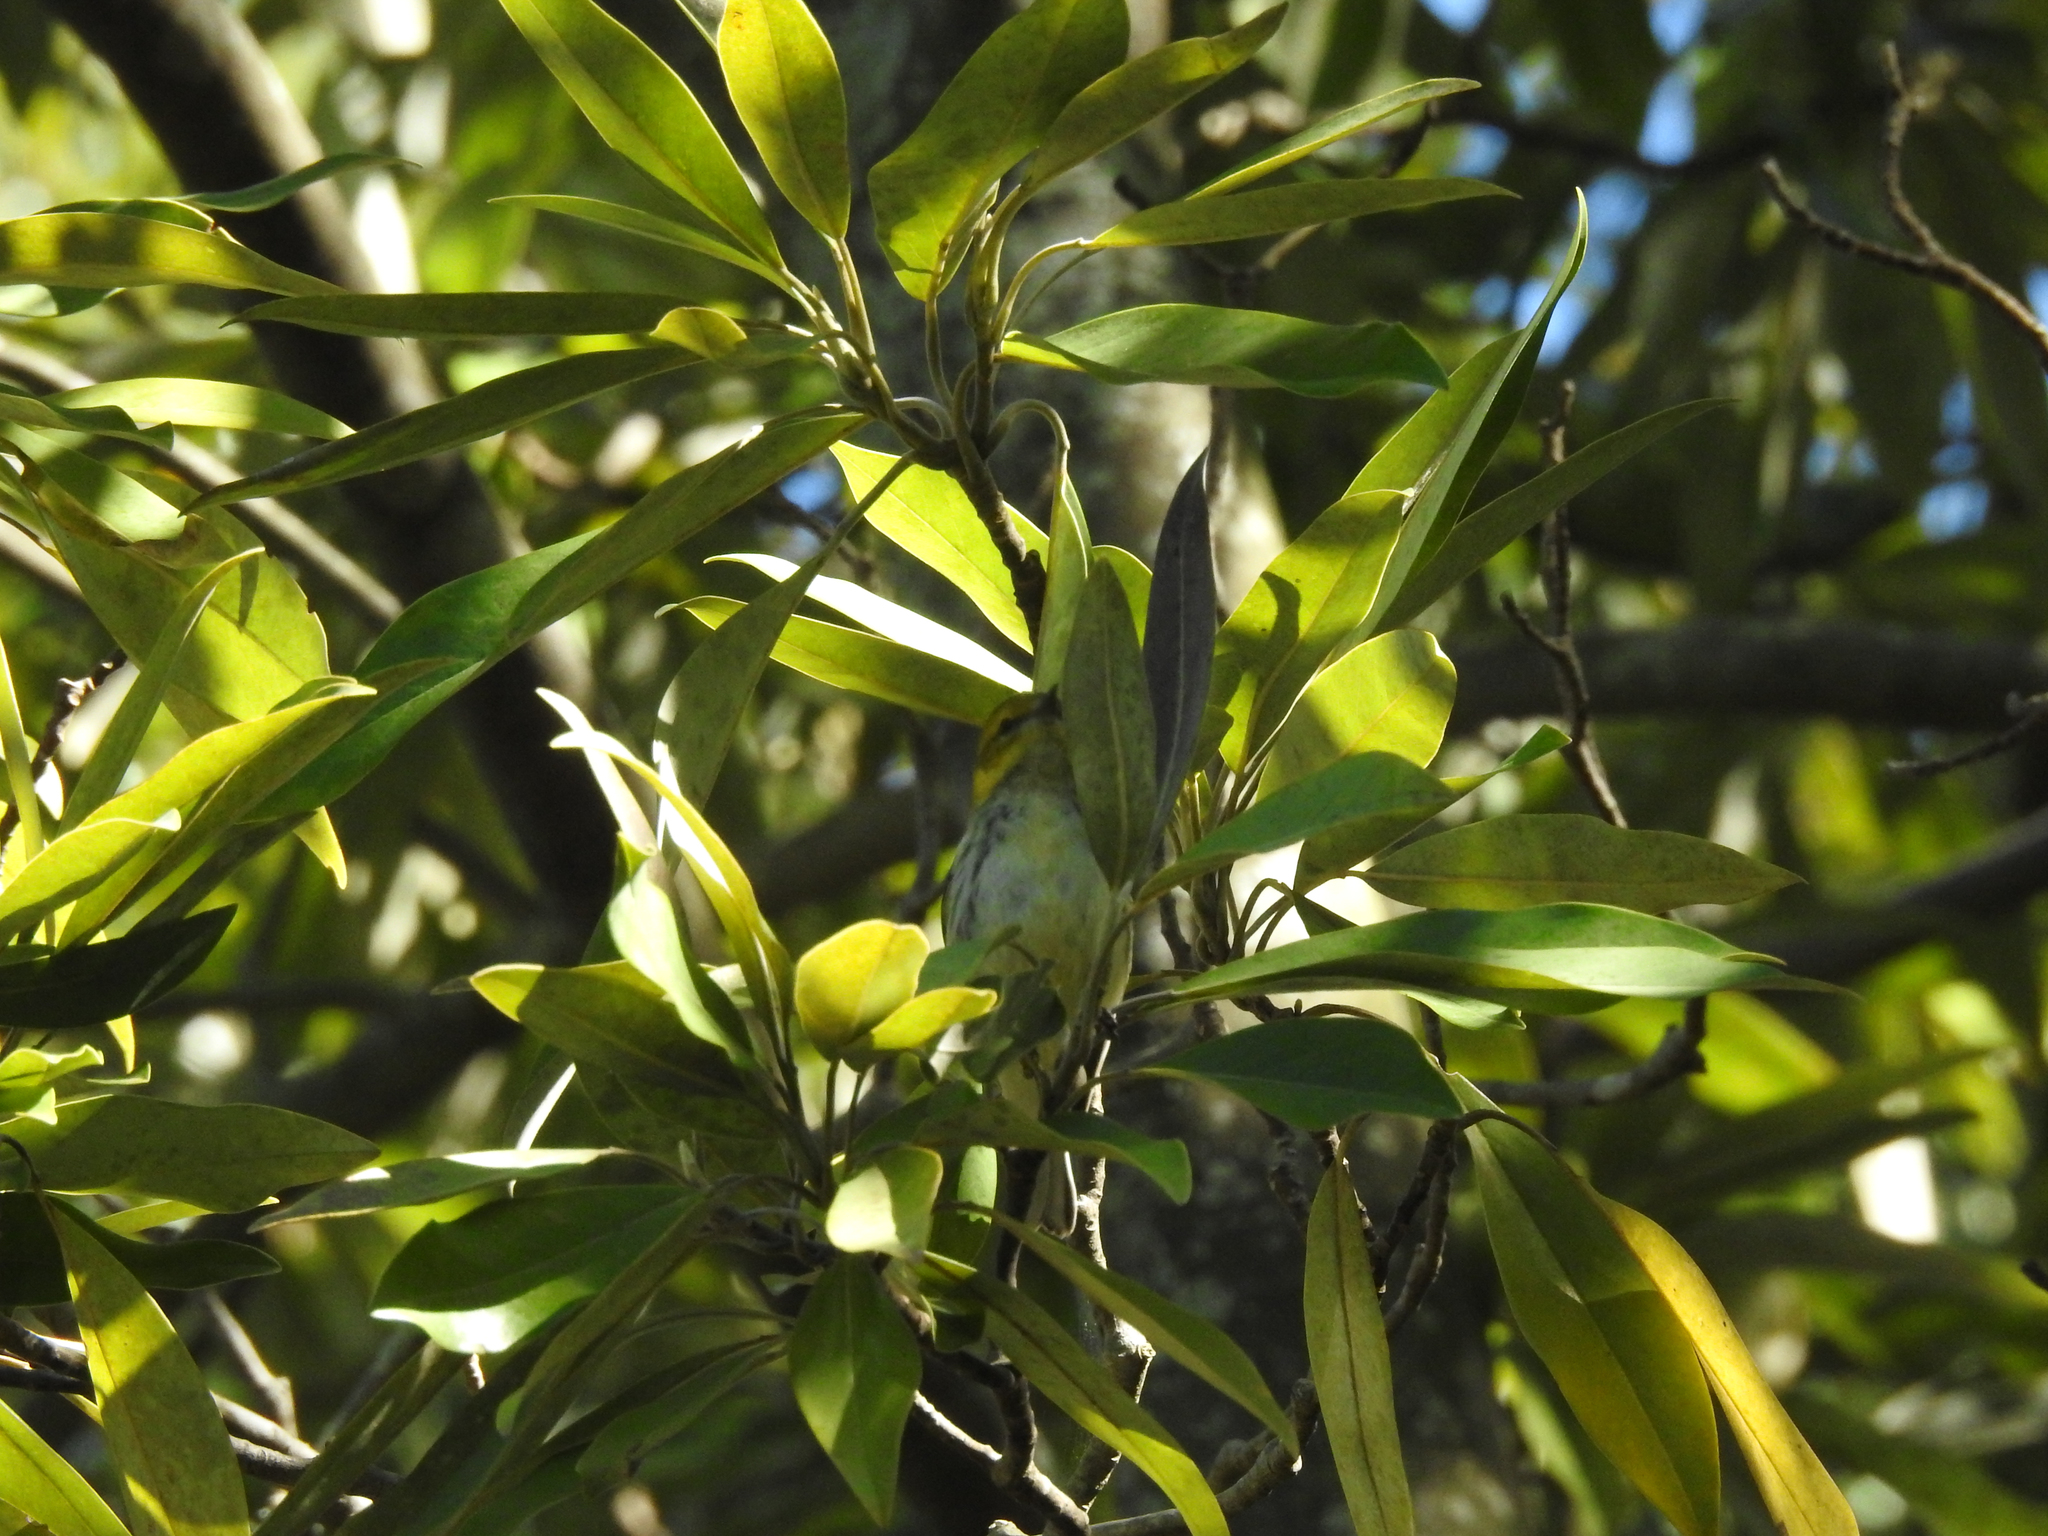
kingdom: Animalia
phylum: Chordata
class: Aves
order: Passeriformes
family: Parulidae
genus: Setophaga
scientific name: Setophaga virens
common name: Black-throated green warbler
